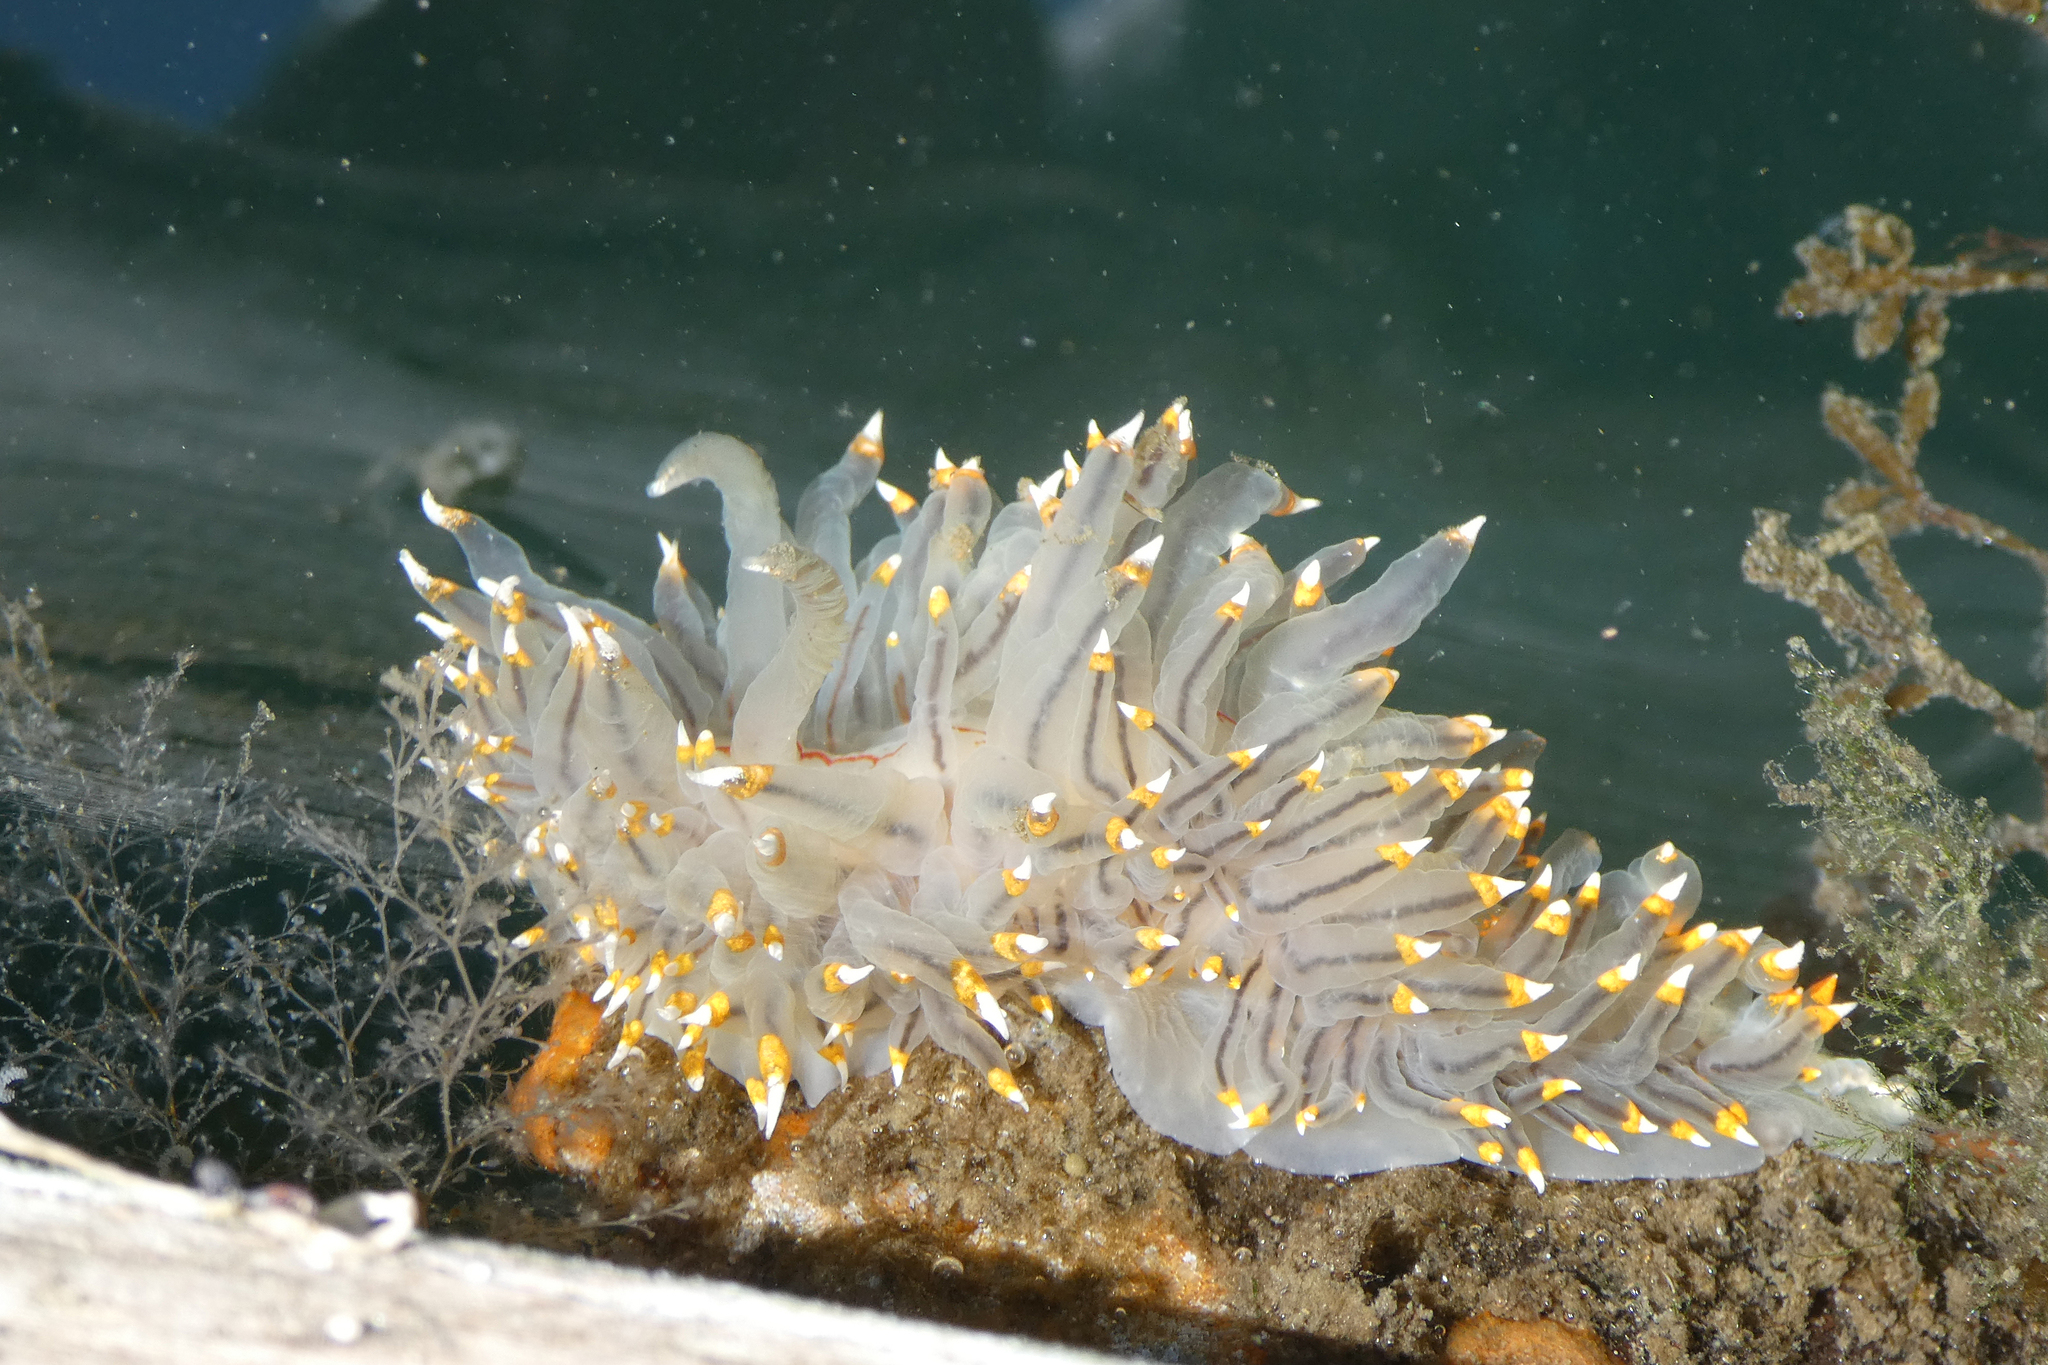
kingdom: Animalia
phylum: Mollusca
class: Gastropoda
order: Nudibranchia
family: Janolidae
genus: Antiopella
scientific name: Antiopella fusca
